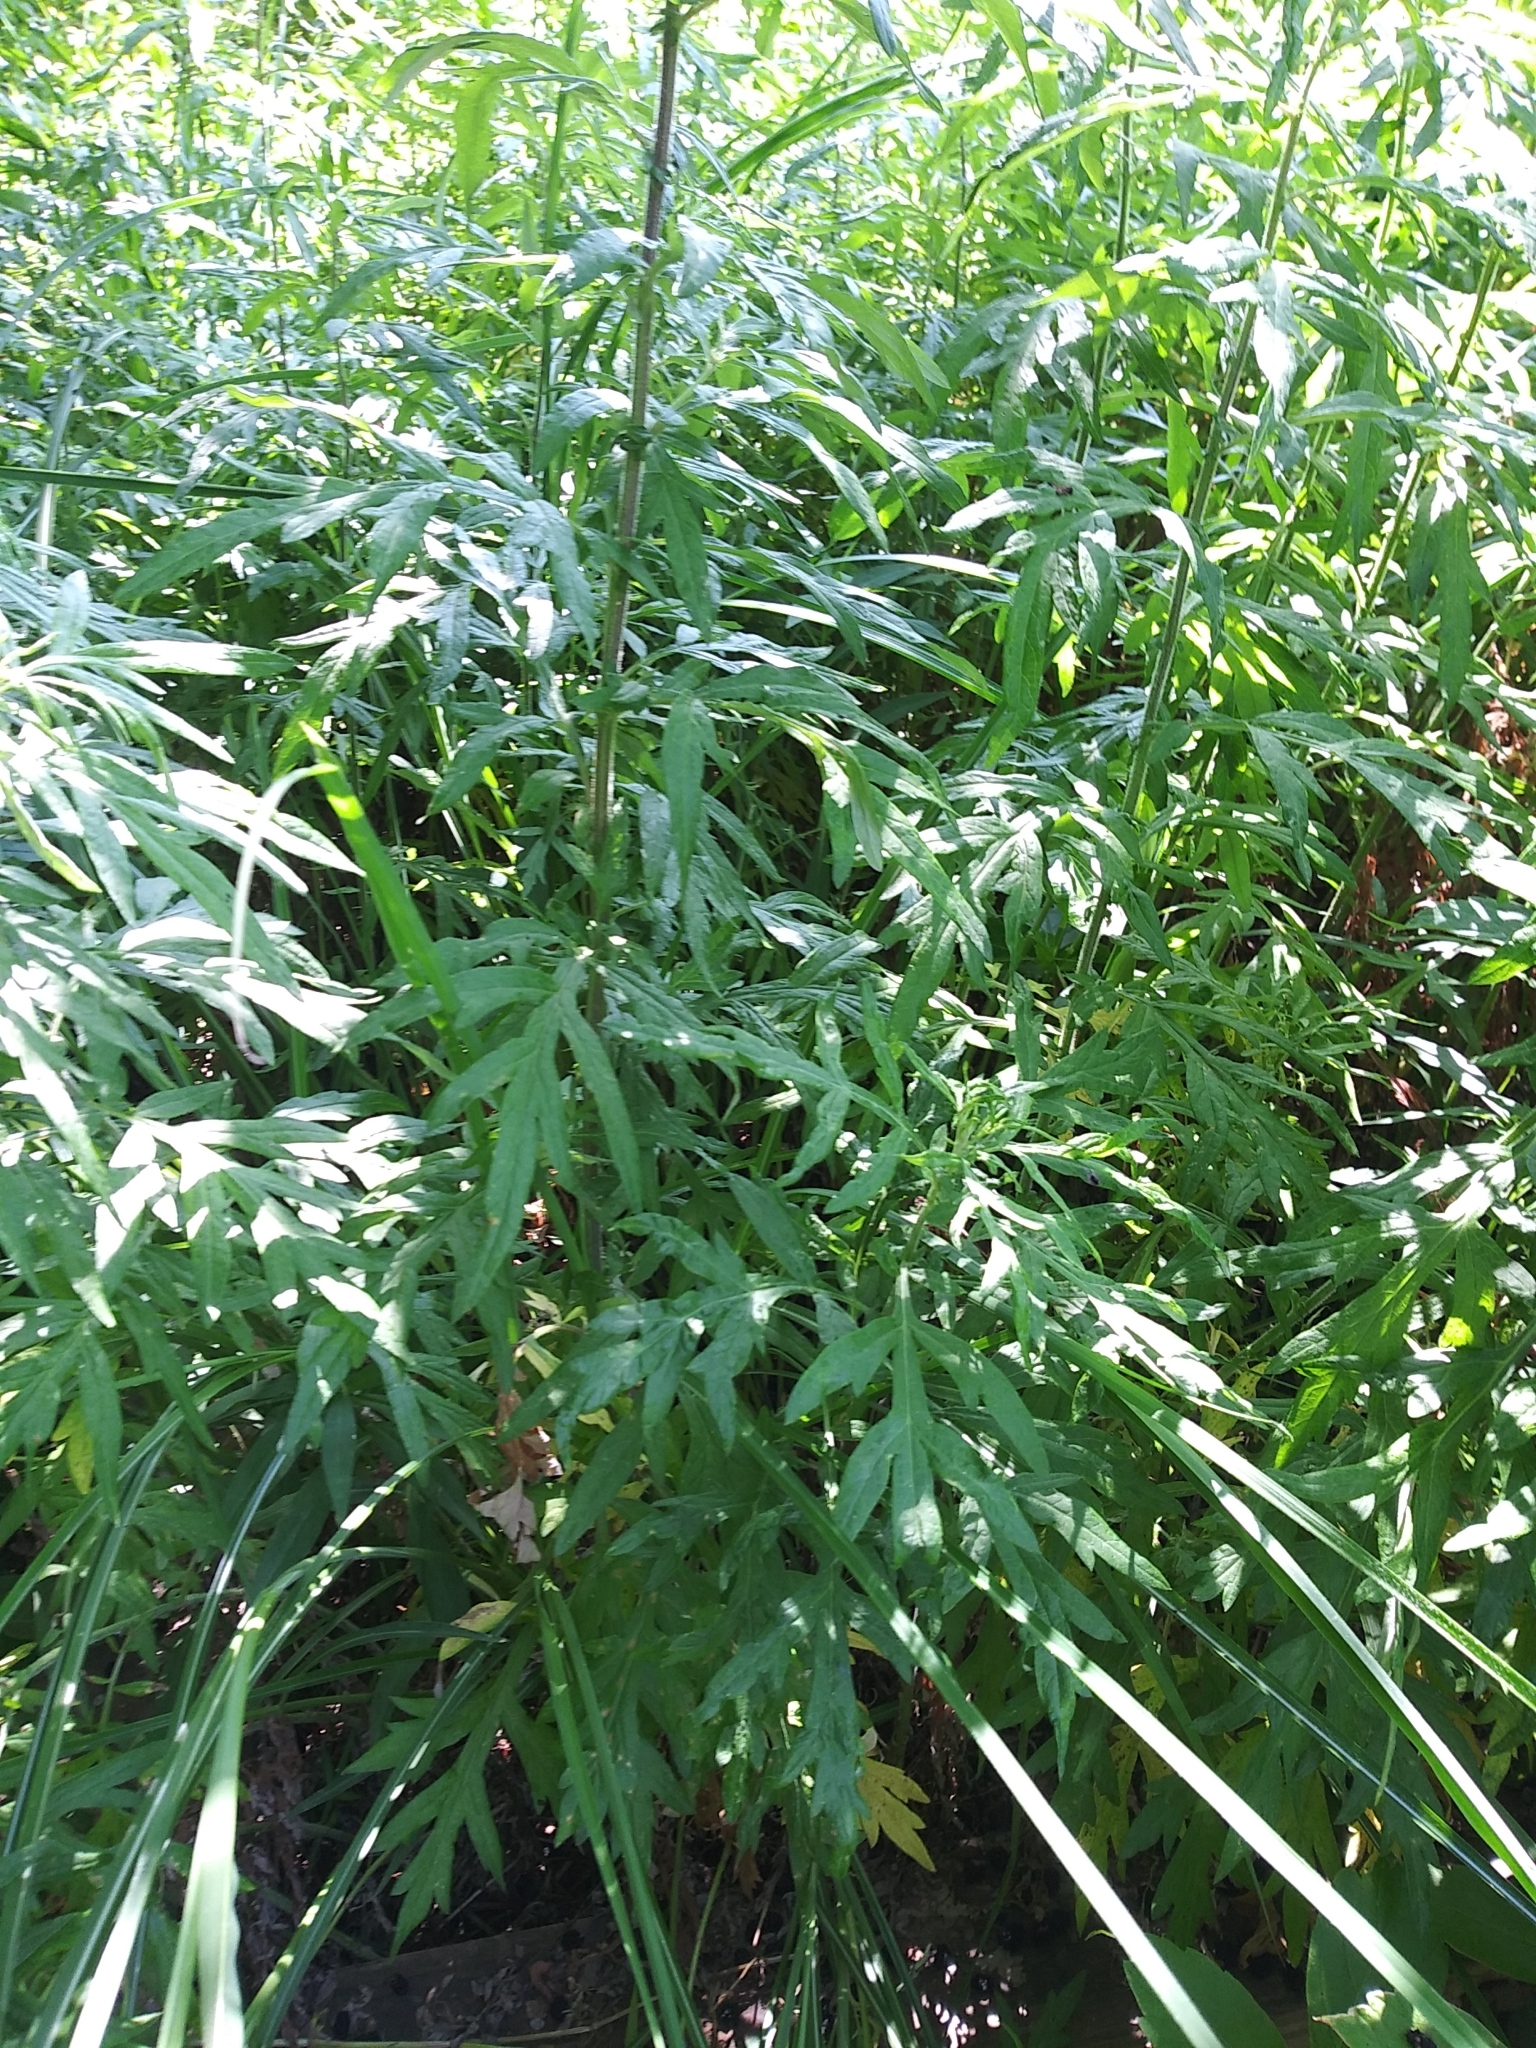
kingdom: Plantae
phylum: Tracheophyta
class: Magnoliopsida
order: Asterales
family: Asteraceae
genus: Artemisia
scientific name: Artemisia vulgaris
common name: Mugwort
